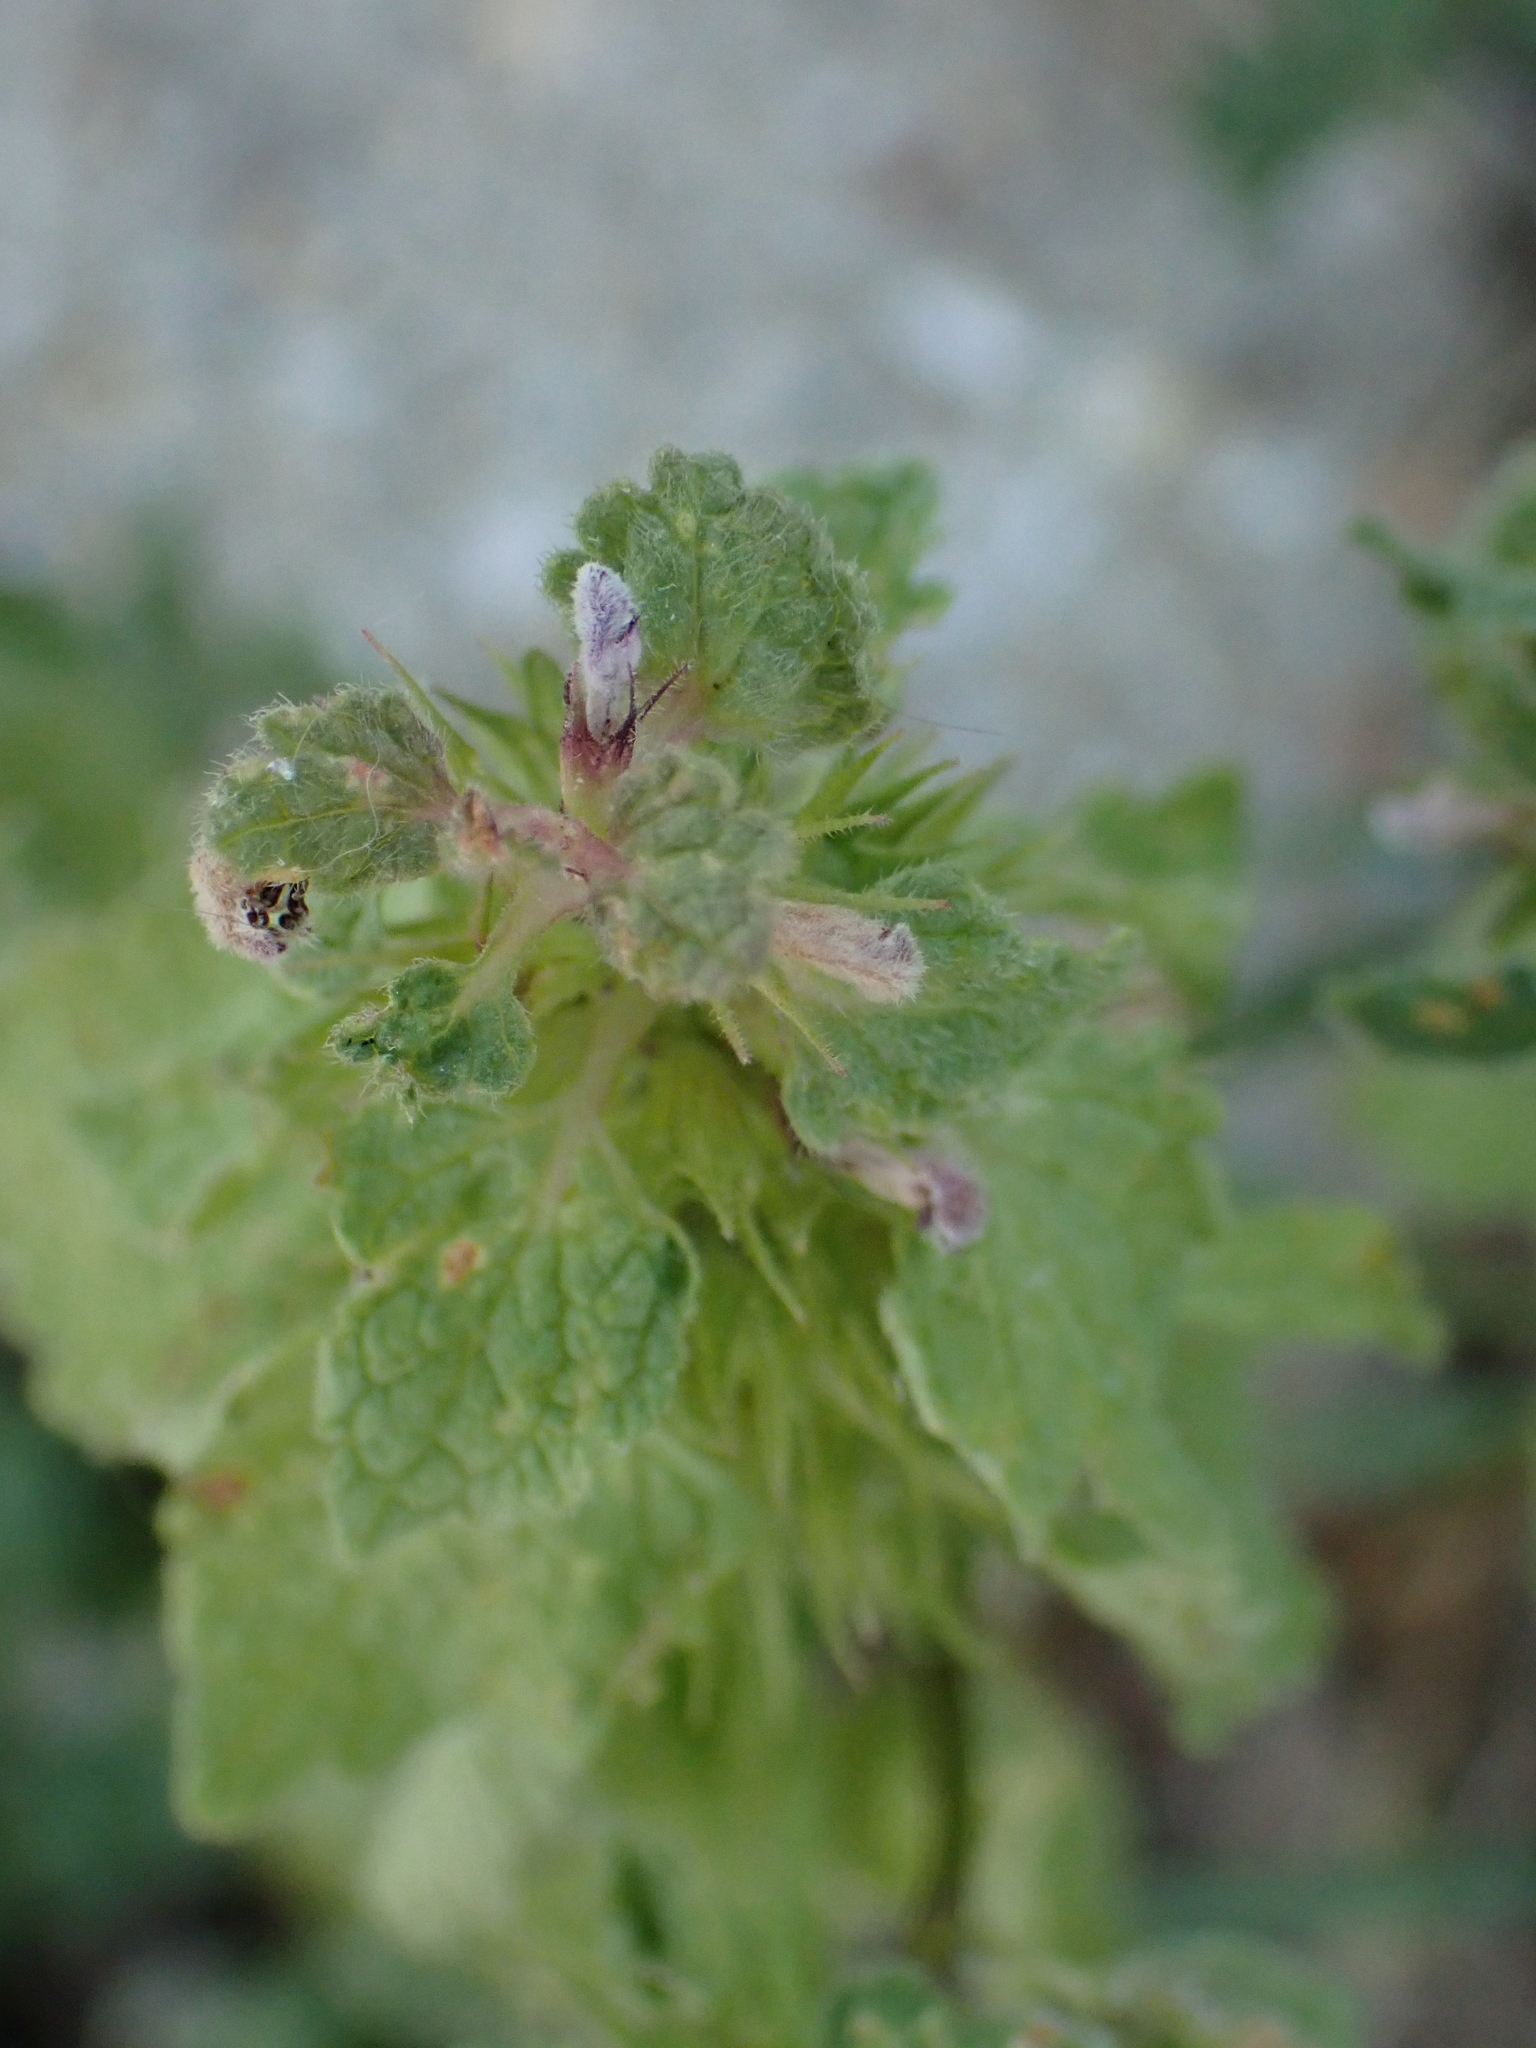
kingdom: Plantae
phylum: Tracheophyta
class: Magnoliopsida
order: Lamiales
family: Lamiaceae
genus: Lamium
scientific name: Lamium purpureum
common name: Red dead-nettle
